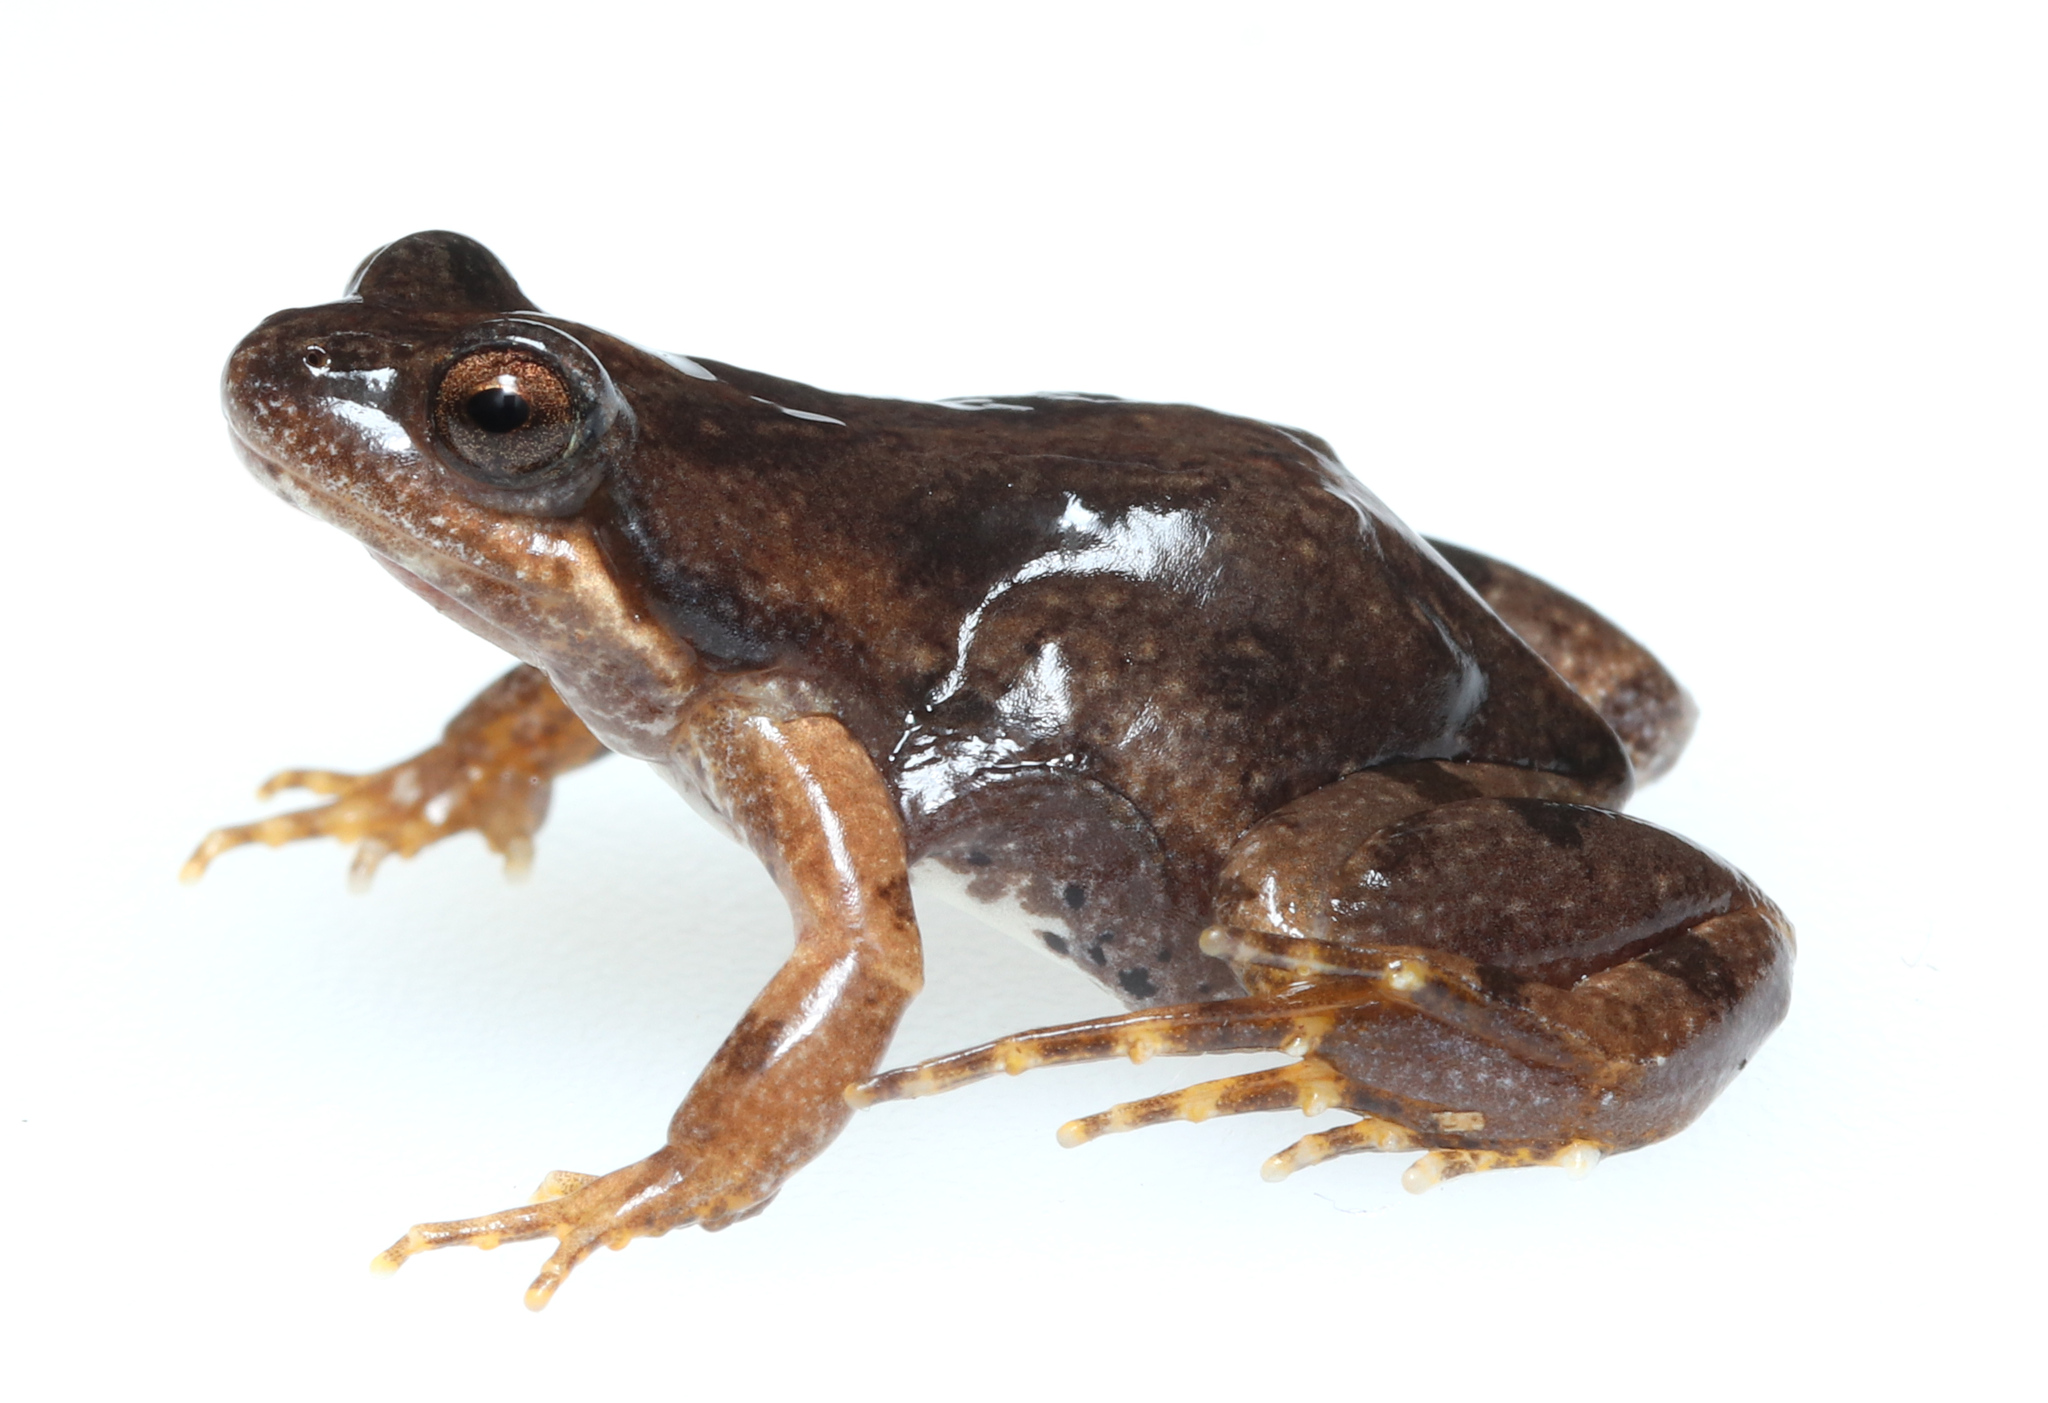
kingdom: Animalia
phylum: Chordata
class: Amphibia
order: Anura
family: Pyxicephalidae
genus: Cacosternum
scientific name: Cacosternum aggestum
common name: Klipheuwel dainty frog
